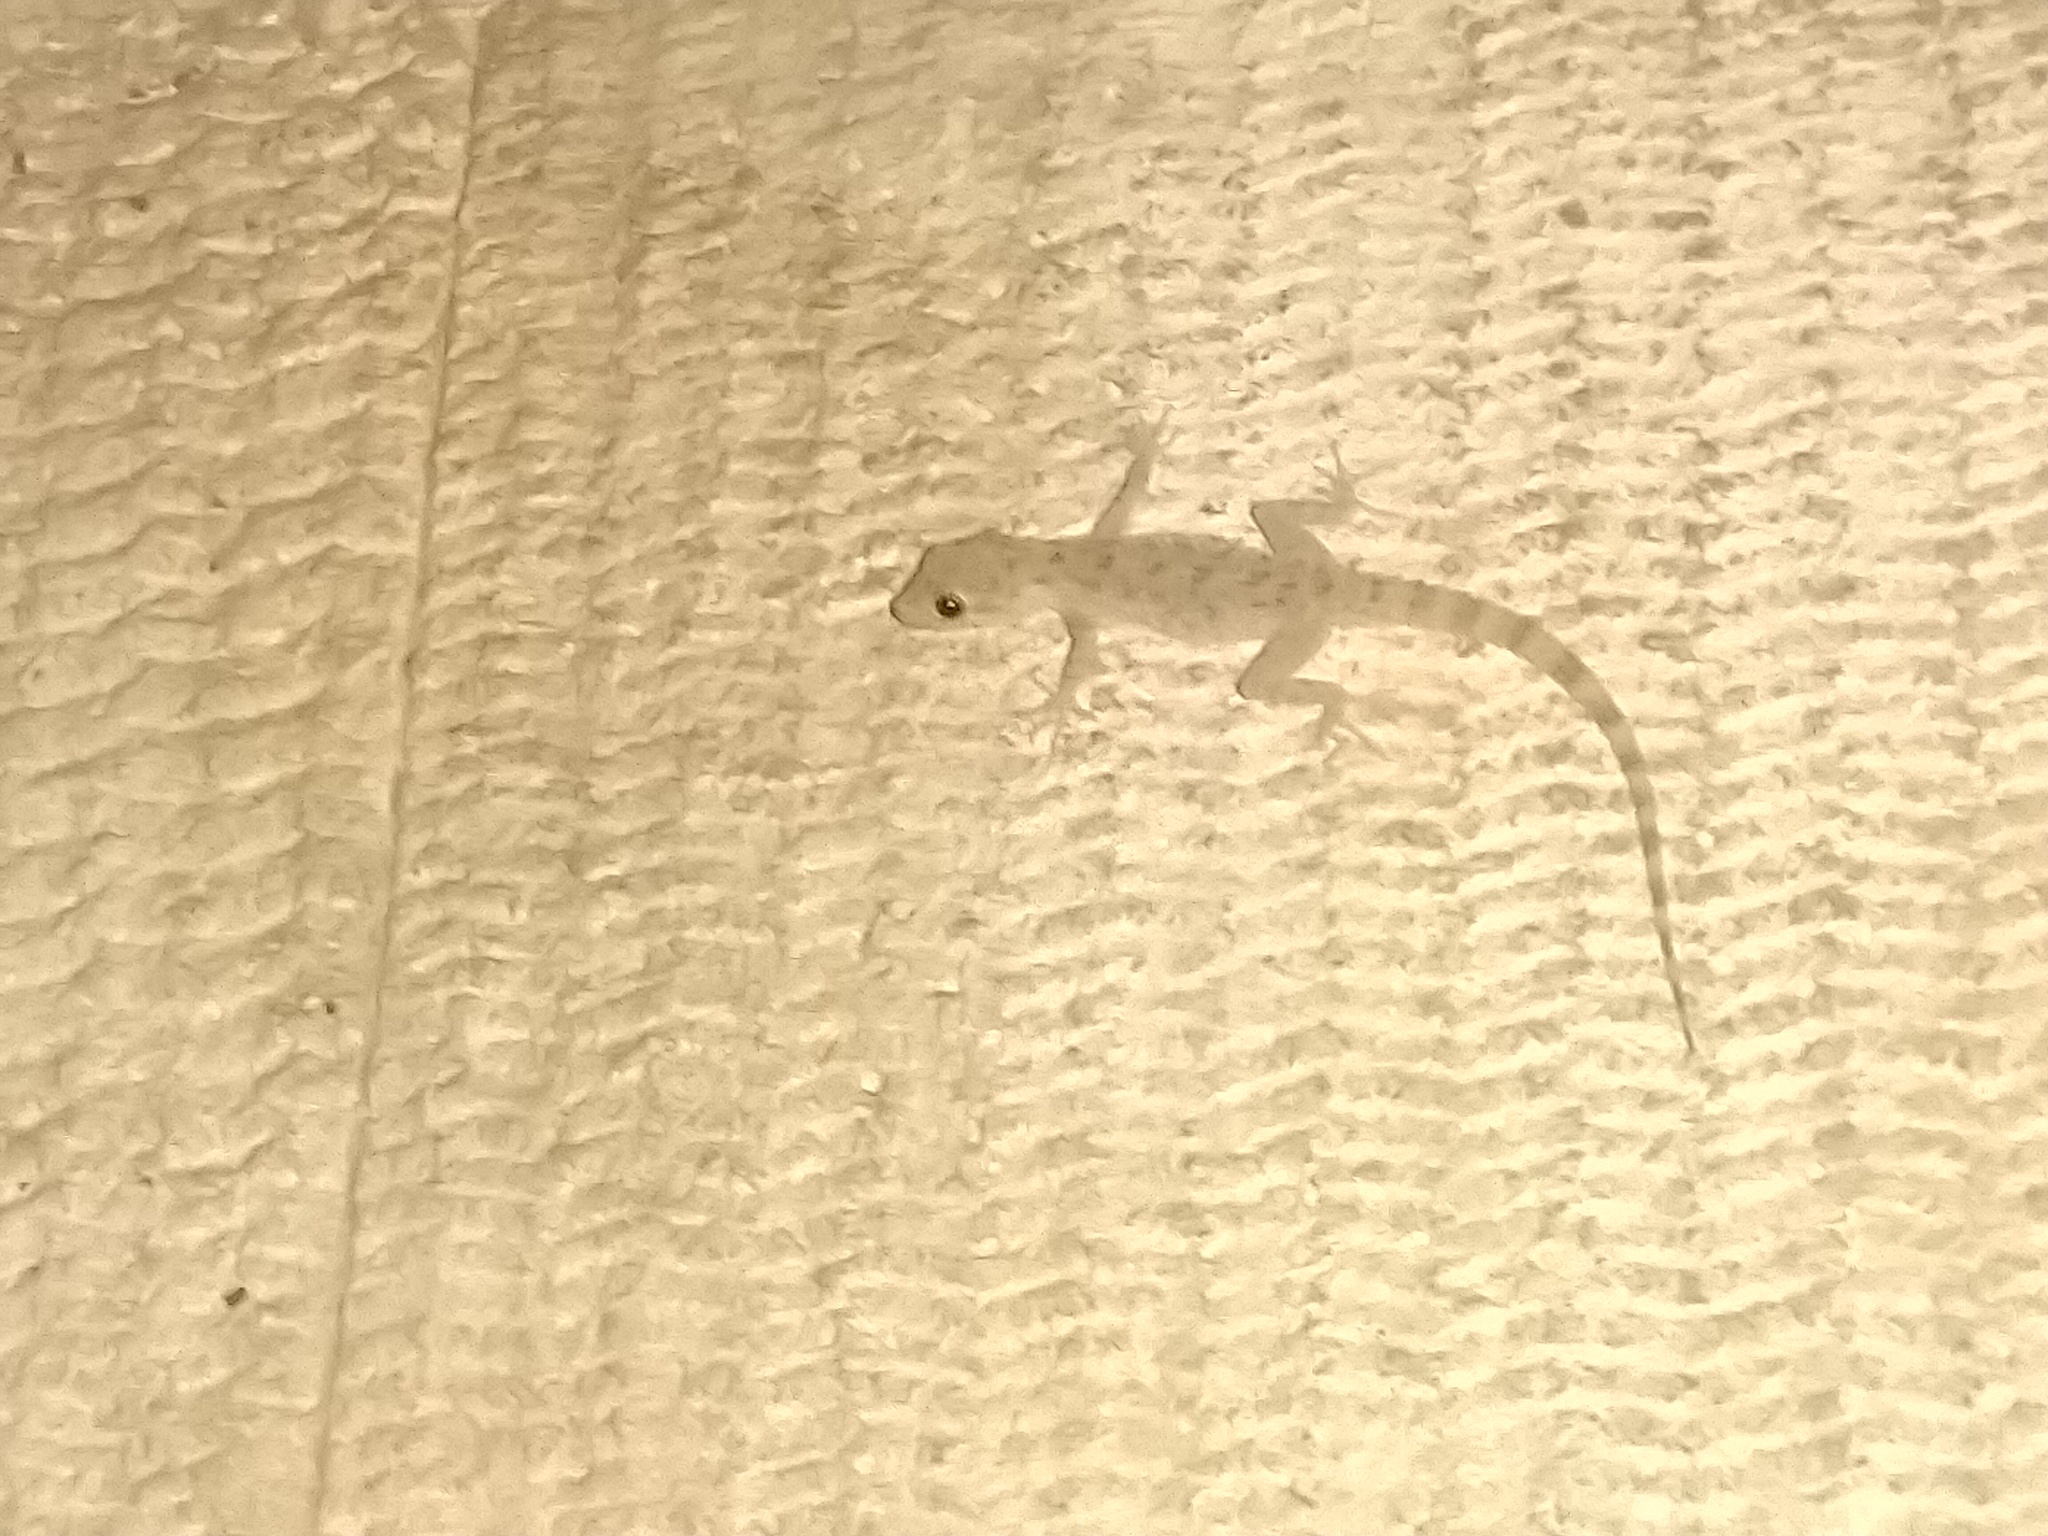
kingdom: Animalia
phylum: Chordata
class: Squamata
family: Gekkonidae
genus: Cyrtopodion
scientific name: Cyrtopodion scabrum
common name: Rough-tailed gecko
